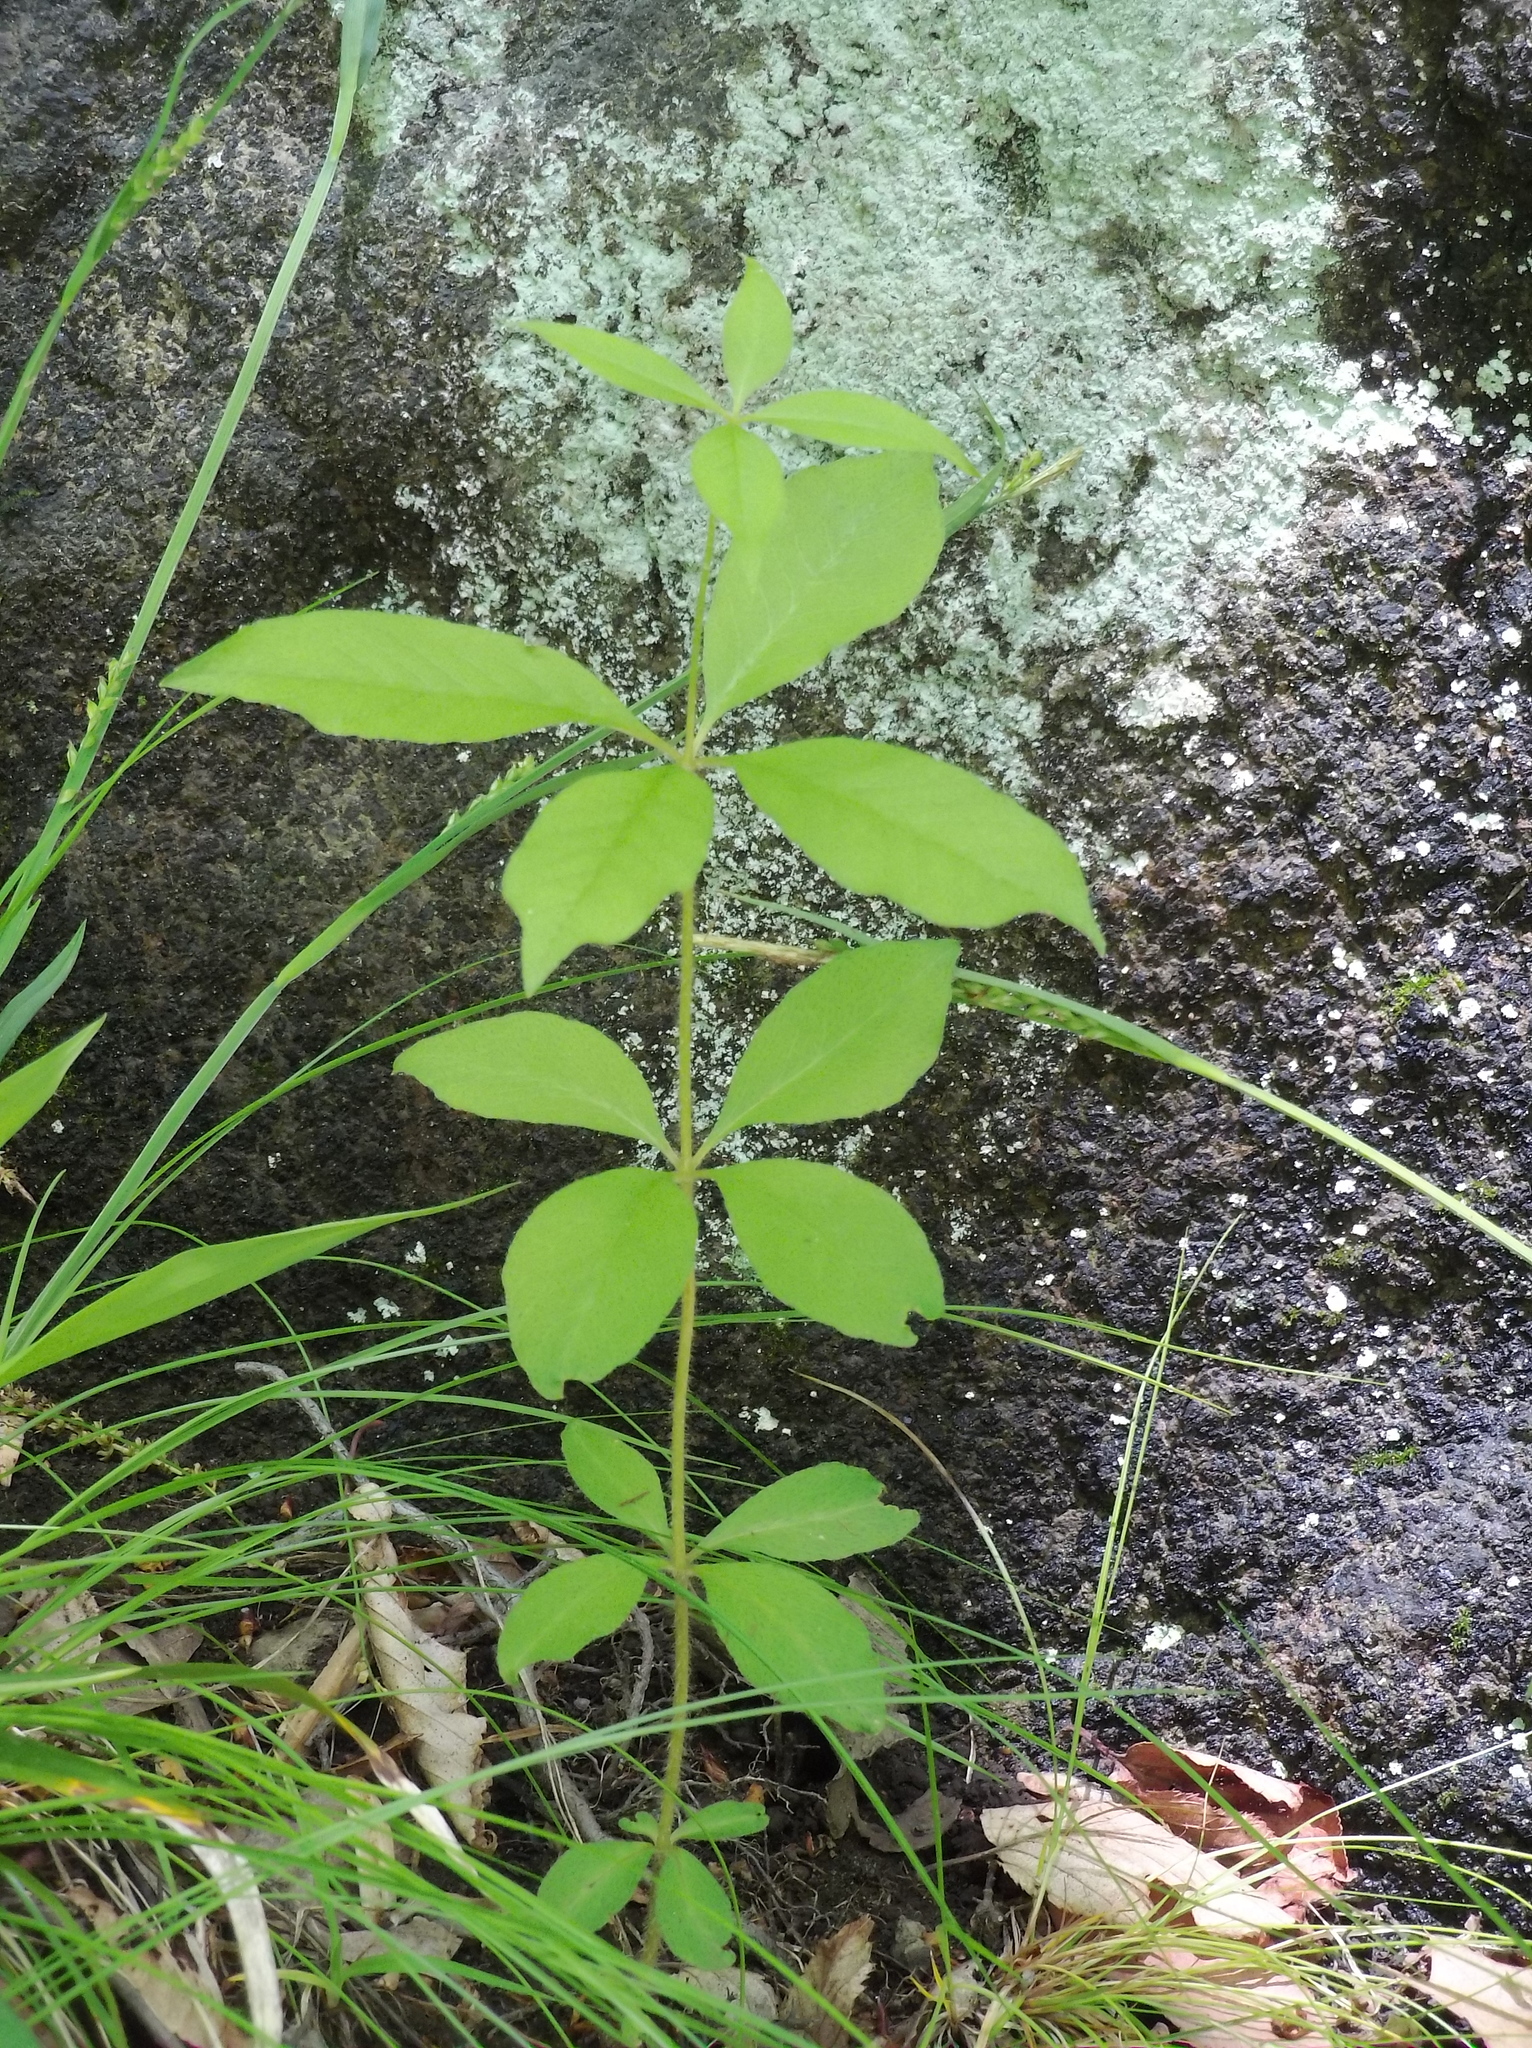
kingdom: Plantae
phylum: Tracheophyta
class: Magnoliopsida
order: Ericales
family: Primulaceae
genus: Lysimachia
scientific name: Lysimachia quadrifolia
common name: Whorled loosestrife
